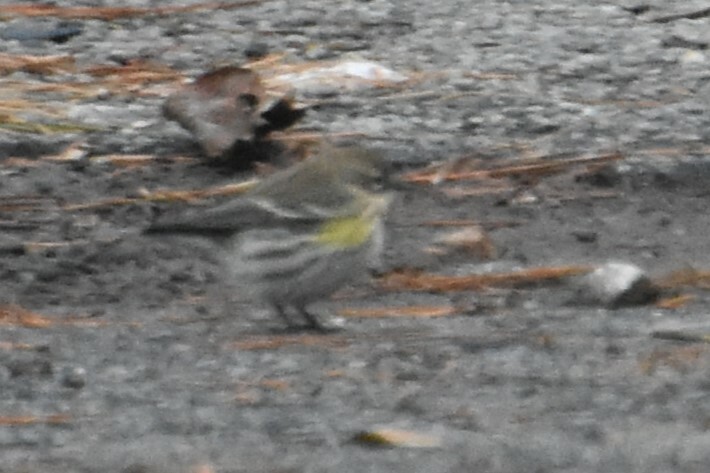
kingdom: Animalia
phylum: Chordata
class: Aves
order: Passeriformes
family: Parulidae
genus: Setophaga
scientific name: Setophaga coronata
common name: Myrtle warbler
